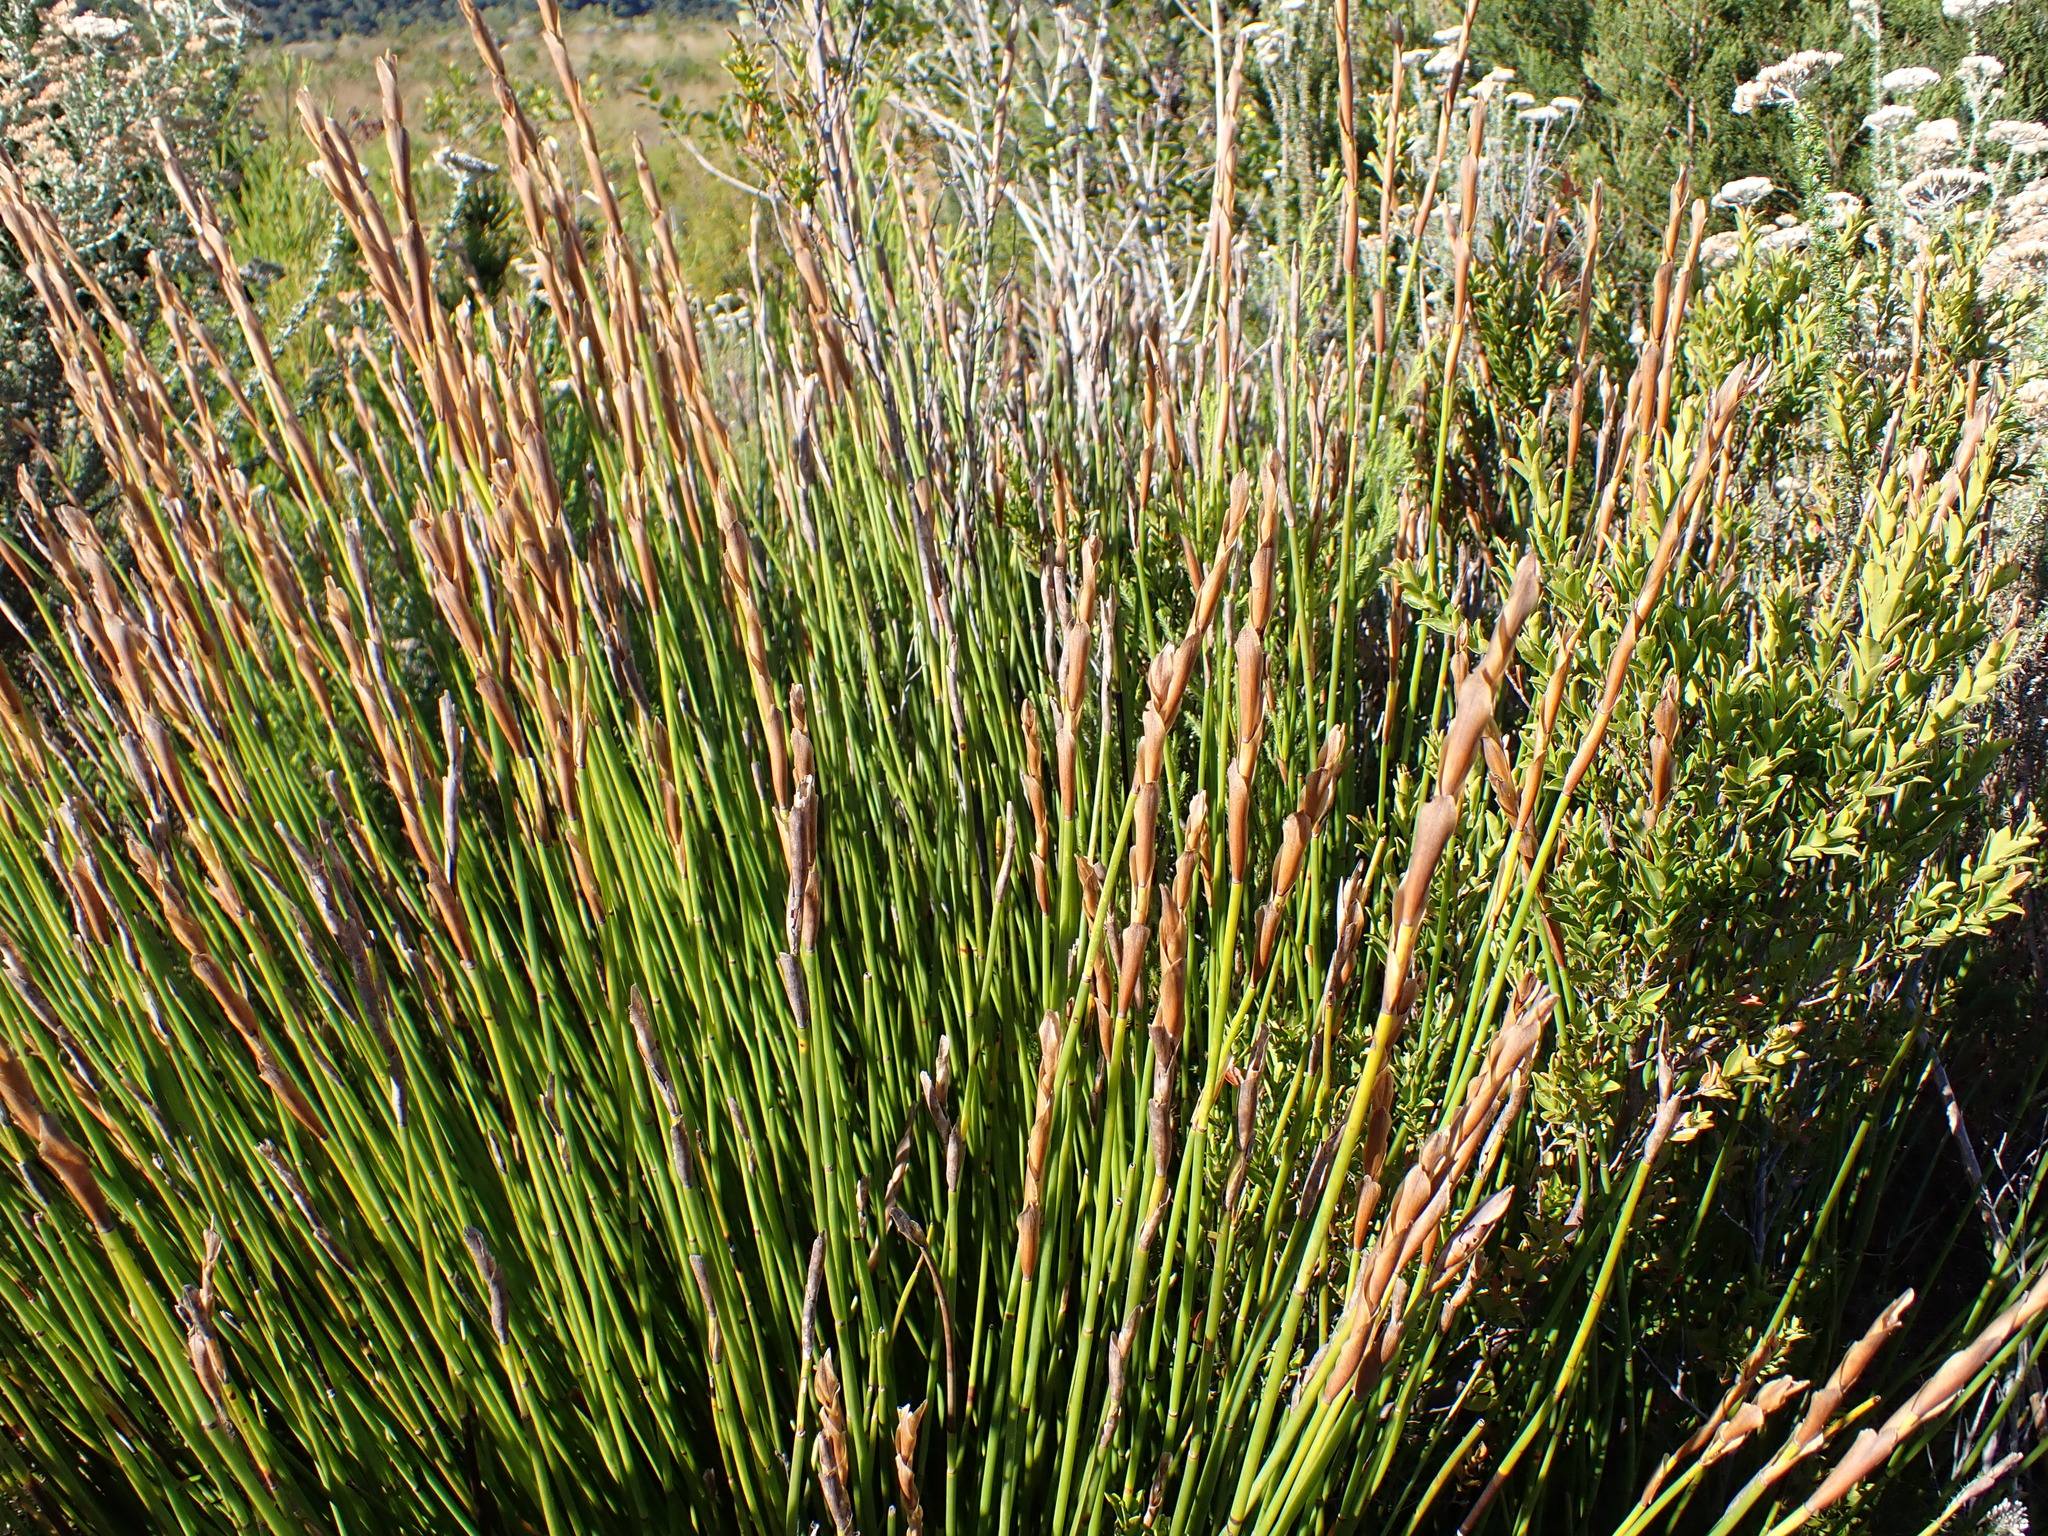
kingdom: Plantae
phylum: Tracheophyta
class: Liliopsida
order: Poales
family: Restionaceae
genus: Elegia
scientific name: Elegia racemosa
